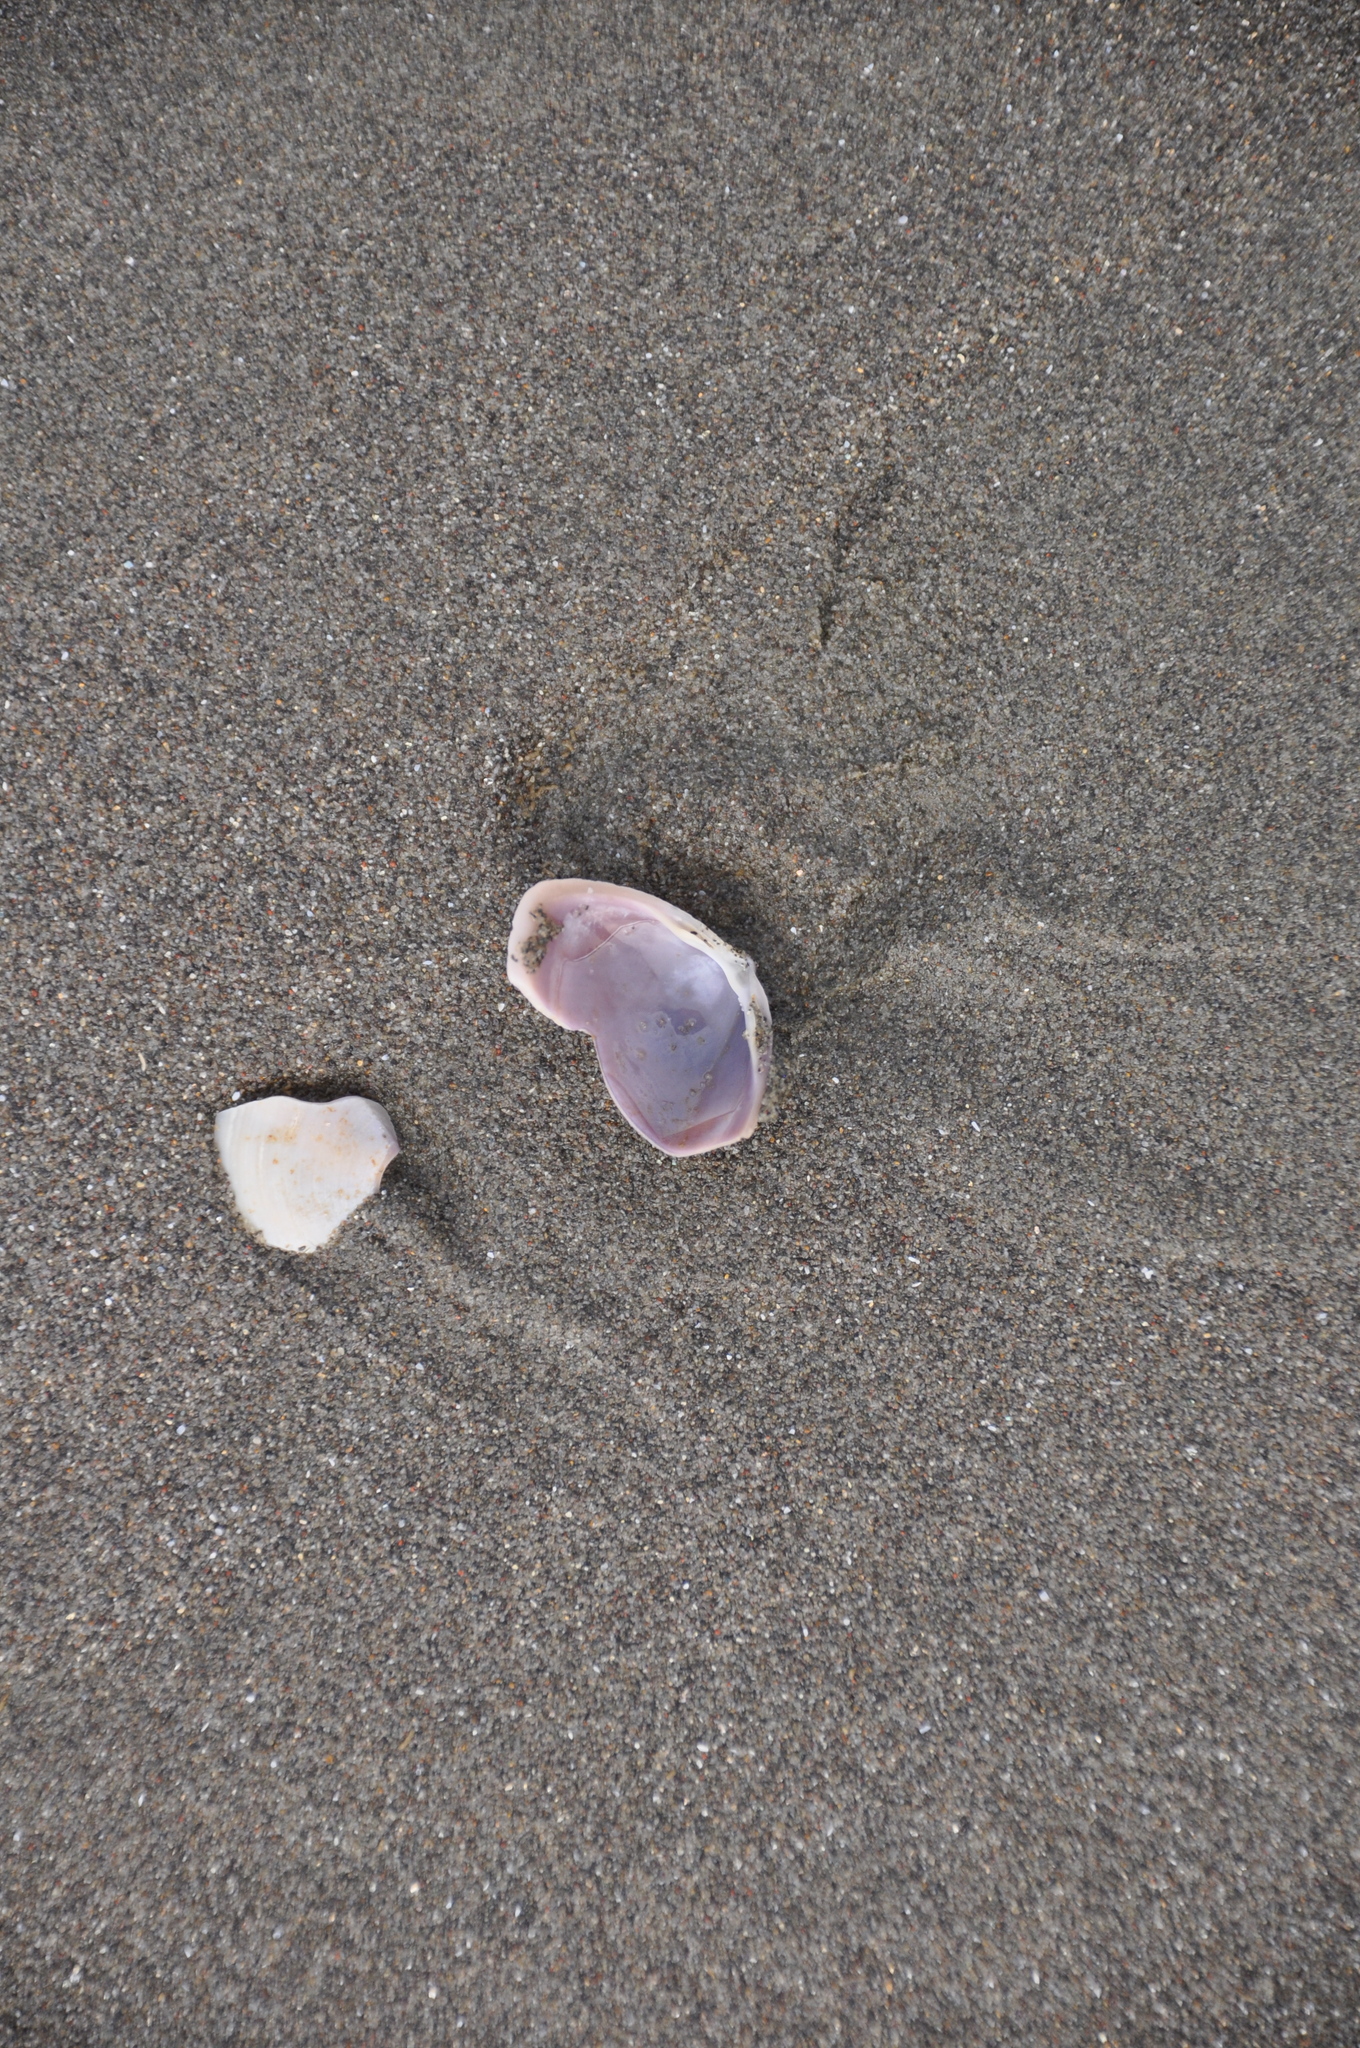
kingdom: Animalia
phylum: Mollusca
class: Bivalvia
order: Venerida
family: Mactridae
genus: Crassula
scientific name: Crassula aequilatera
